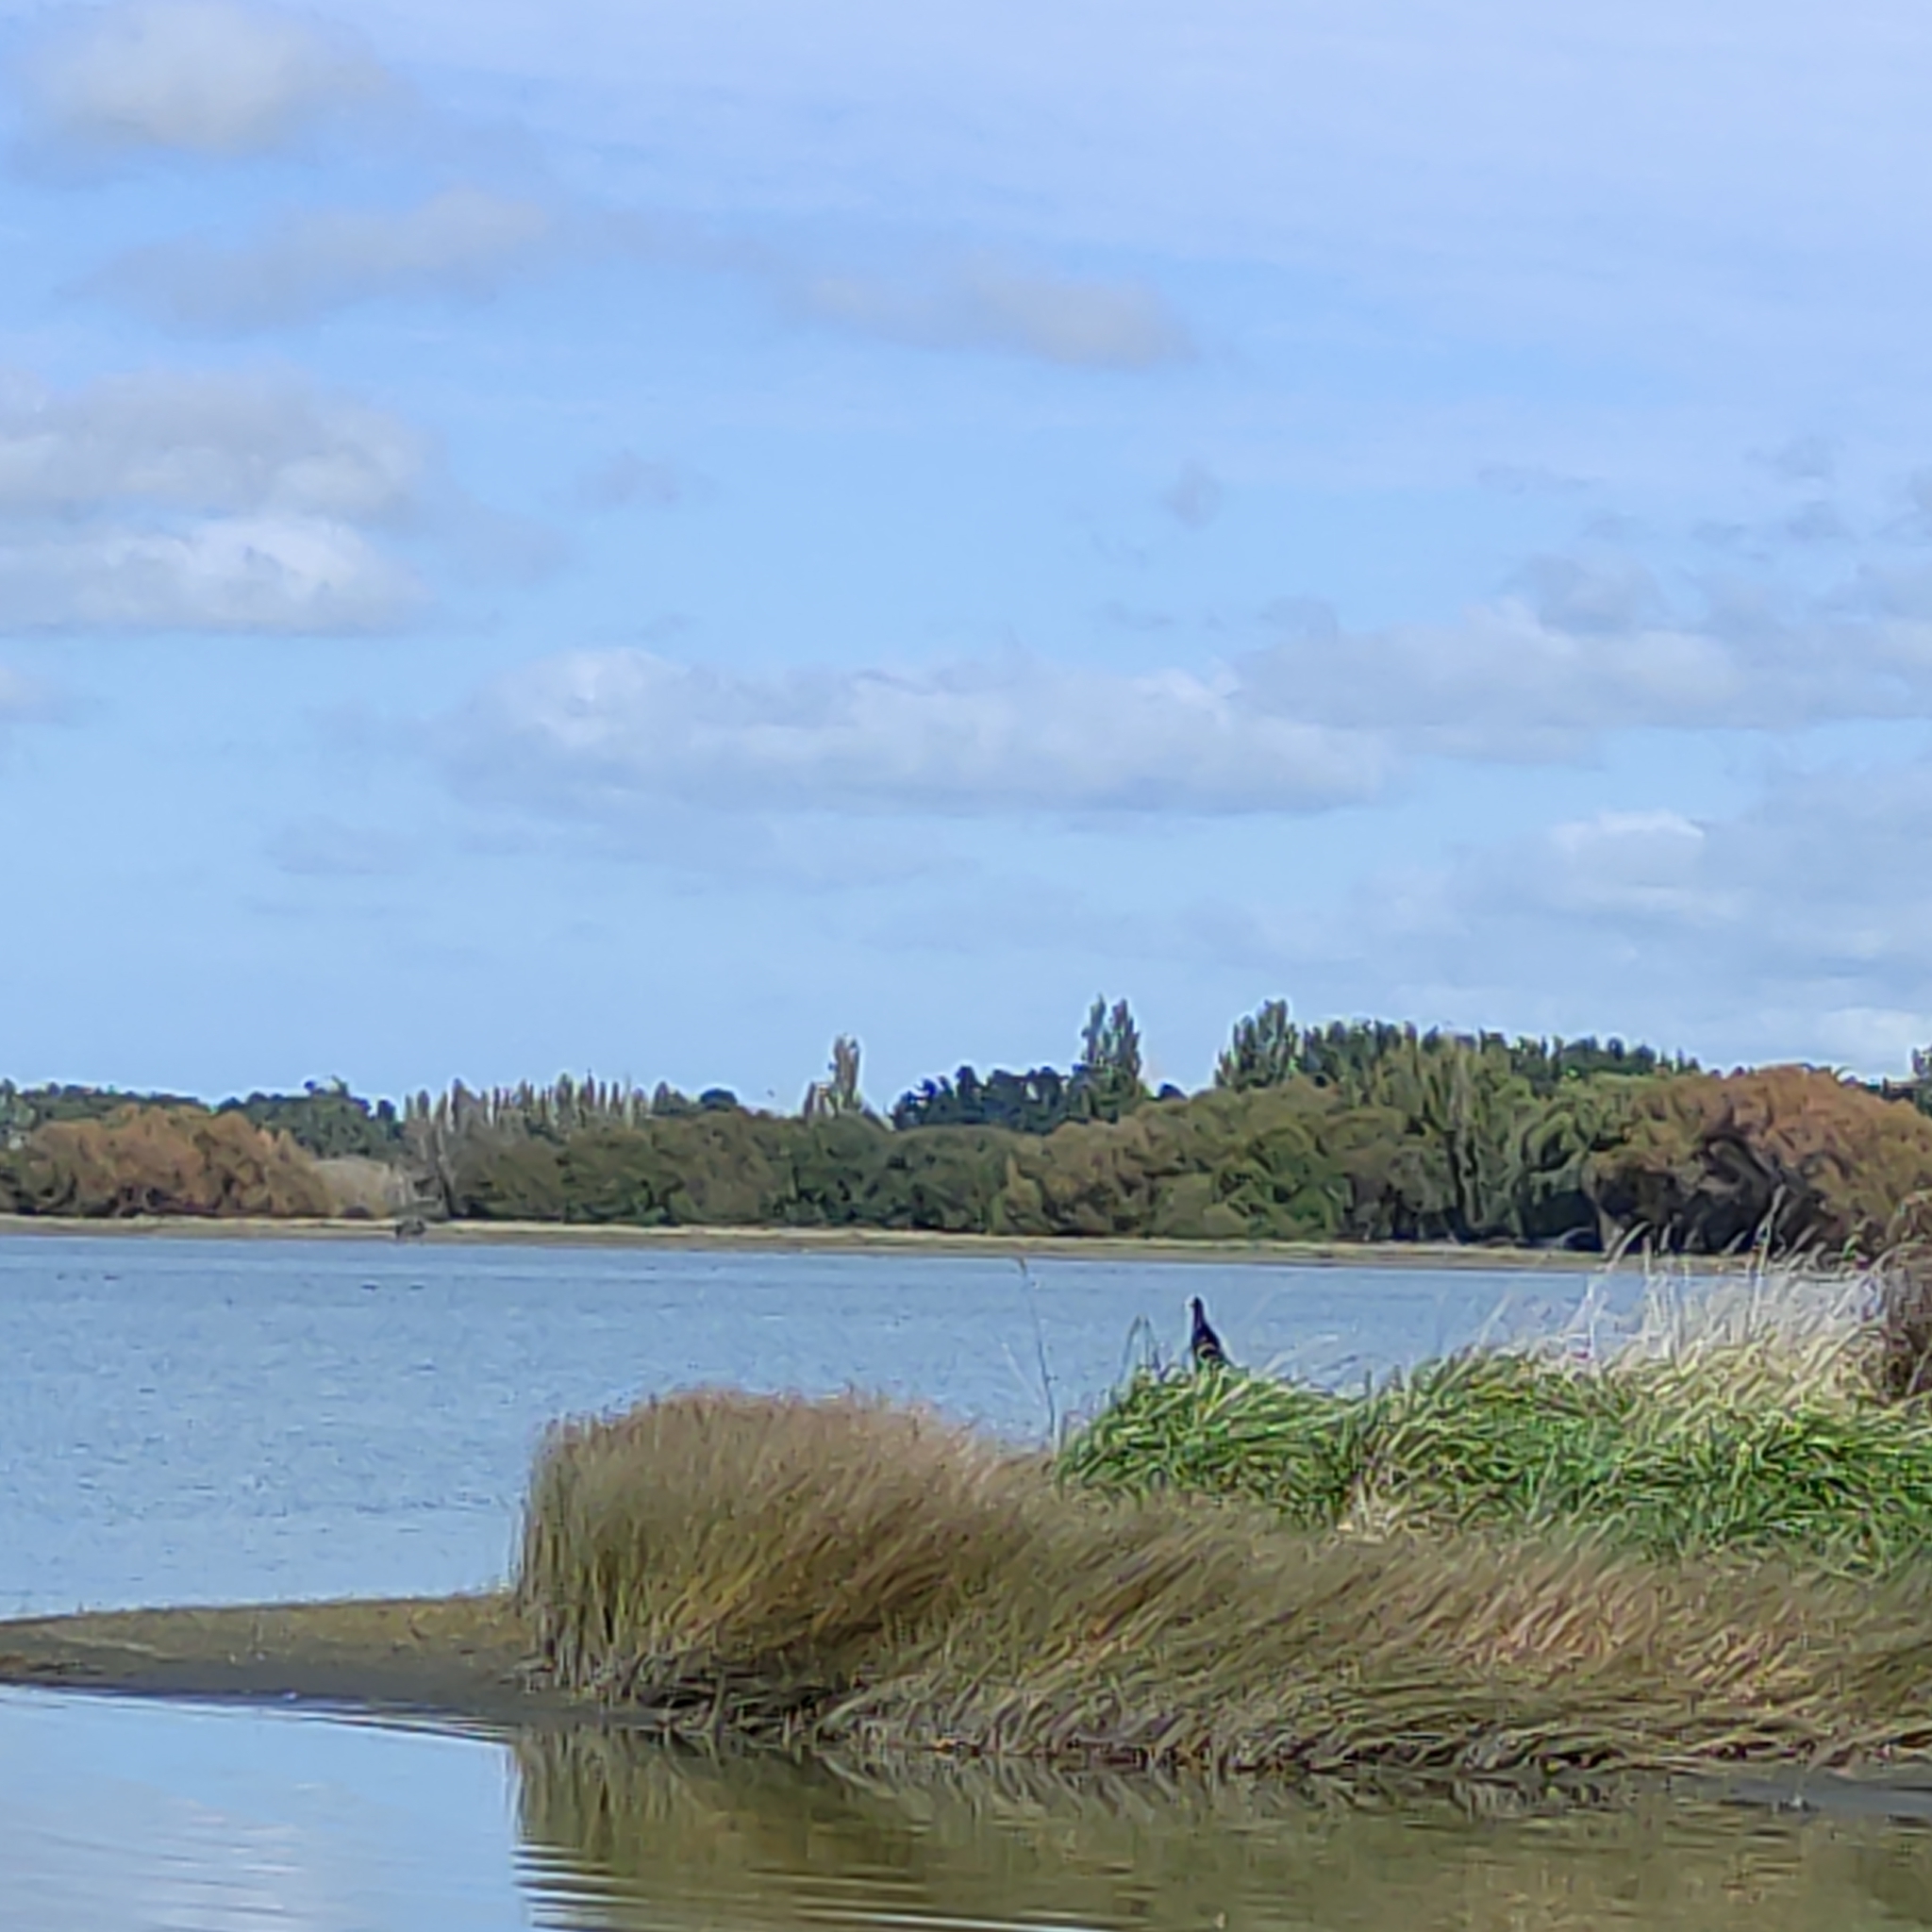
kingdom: Animalia
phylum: Chordata
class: Aves
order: Gruiformes
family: Rallidae
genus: Porphyrio
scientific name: Porphyrio melanotus
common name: Australasian swamphen
